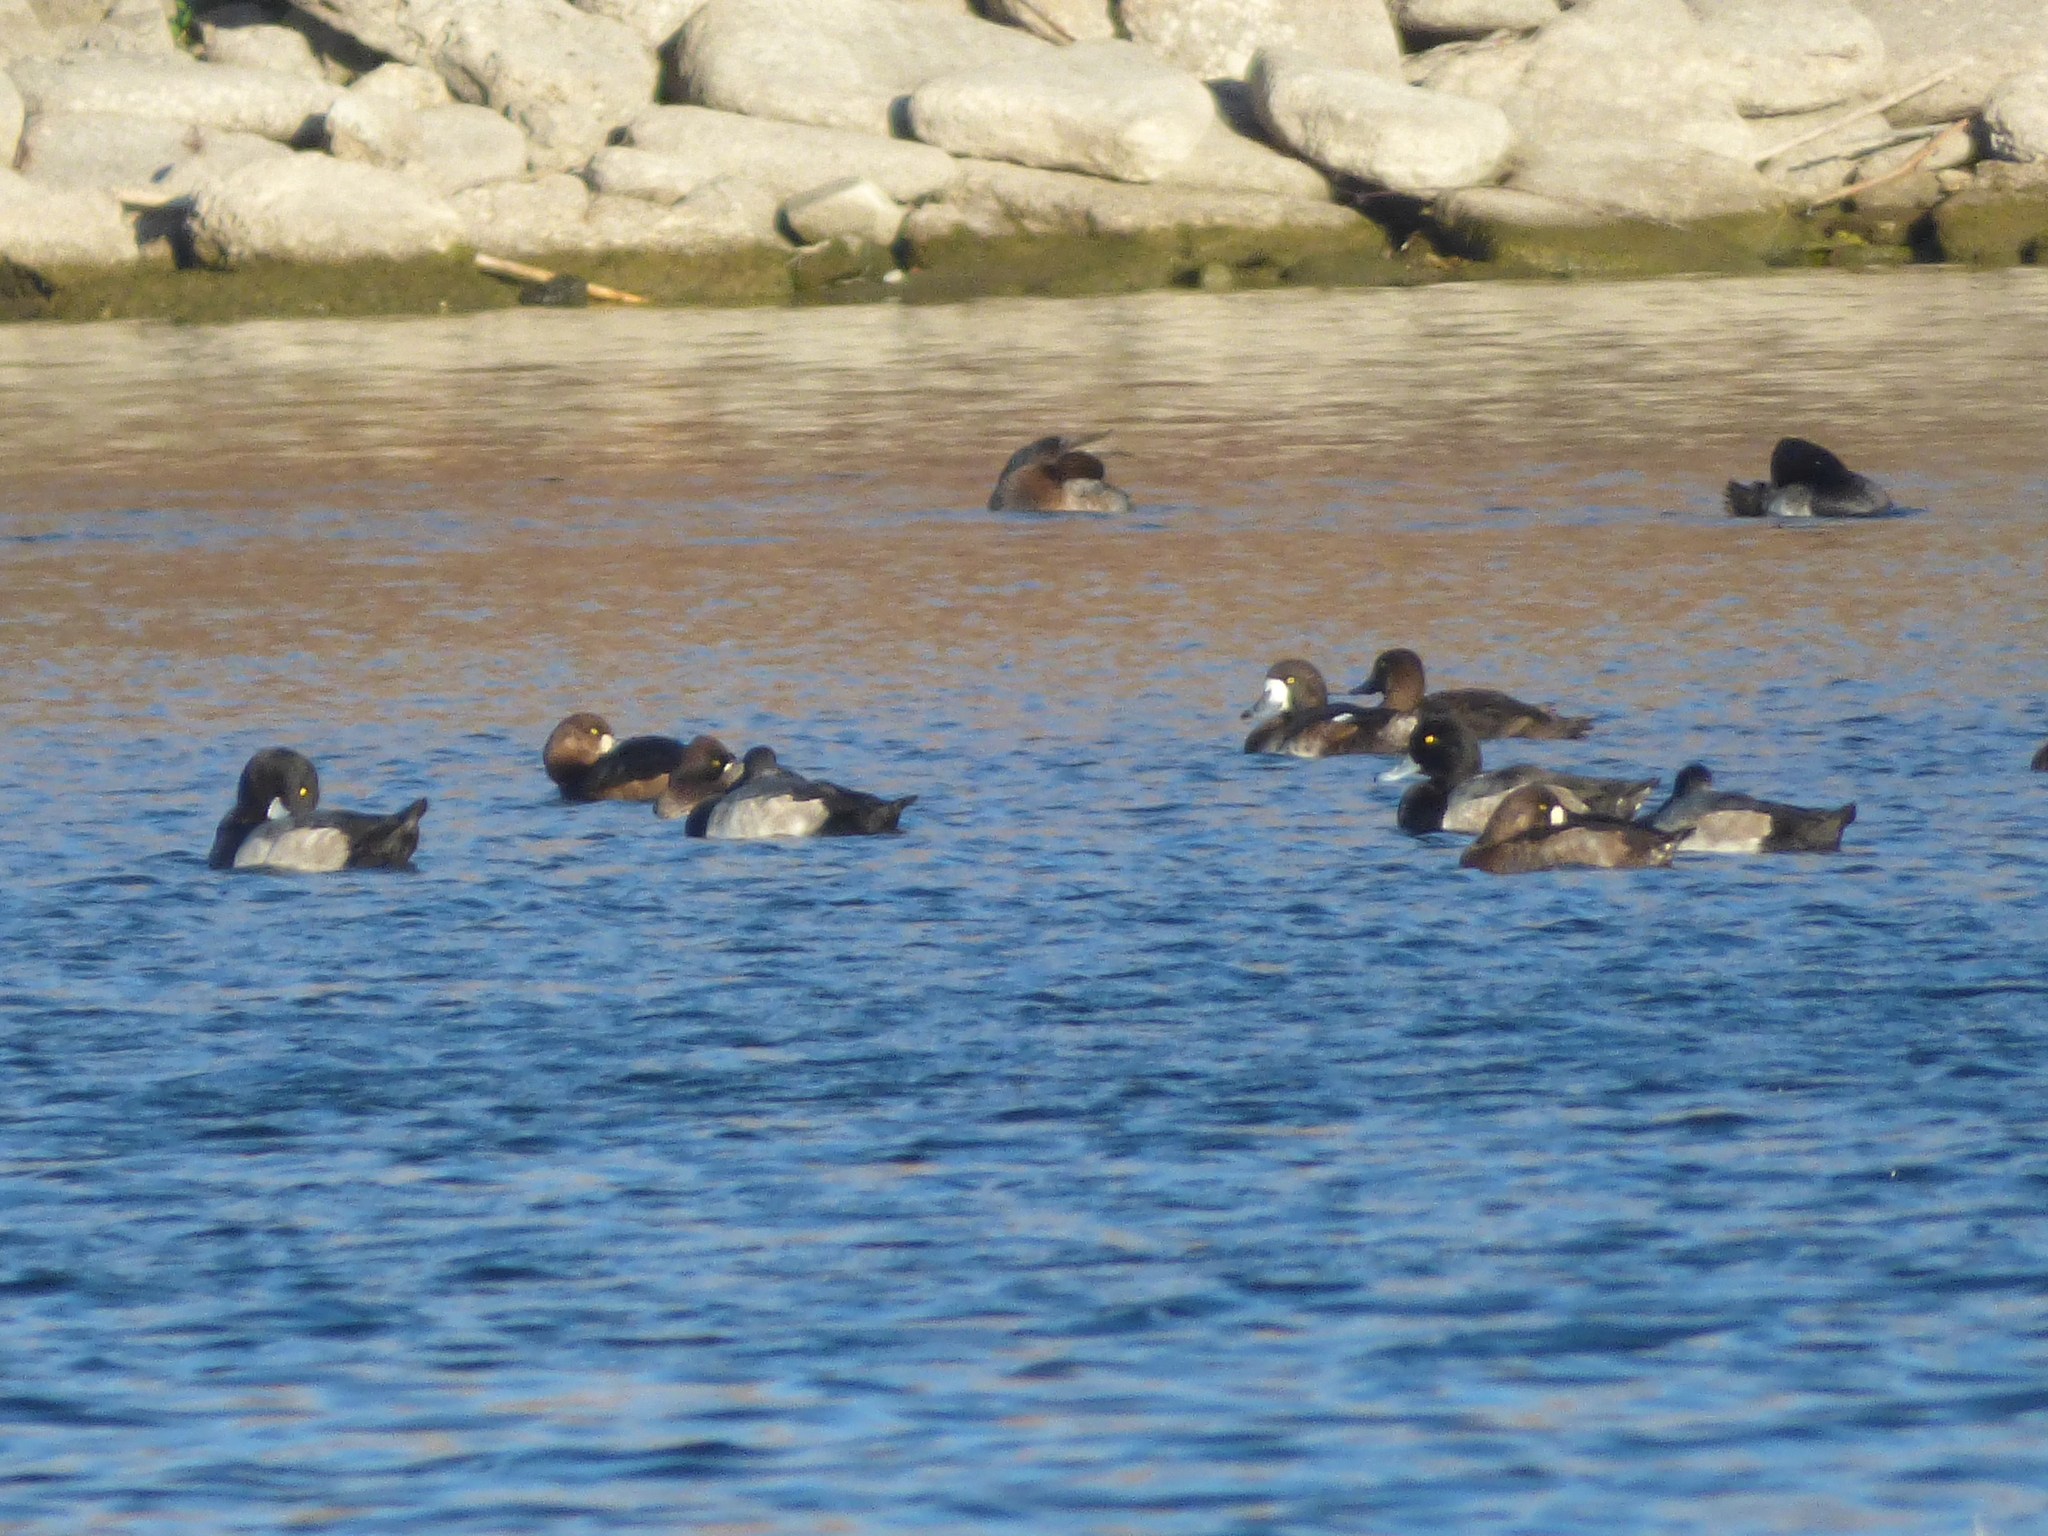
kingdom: Animalia
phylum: Chordata
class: Aves
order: Anseriformes
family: Anatidae
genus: Aythya
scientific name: Aythya marila
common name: Greater scaup
